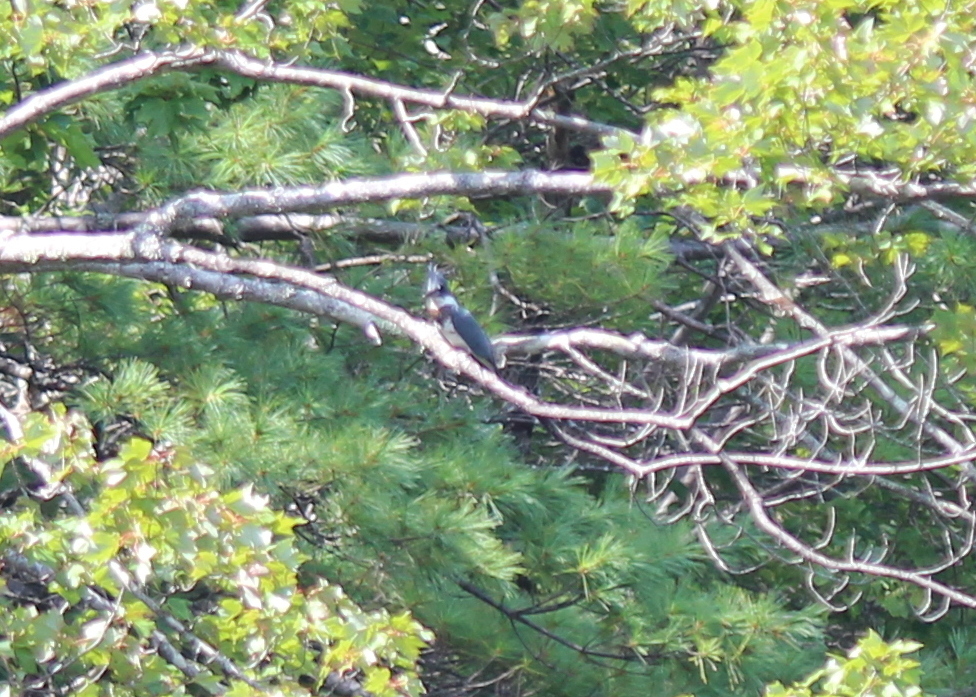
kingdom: Animalia
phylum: Chordata
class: Aves
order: Coraciiformes
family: Alcedinidae
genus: Megaceryle
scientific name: Megaceryle alcyon
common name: Belted kingfisher
